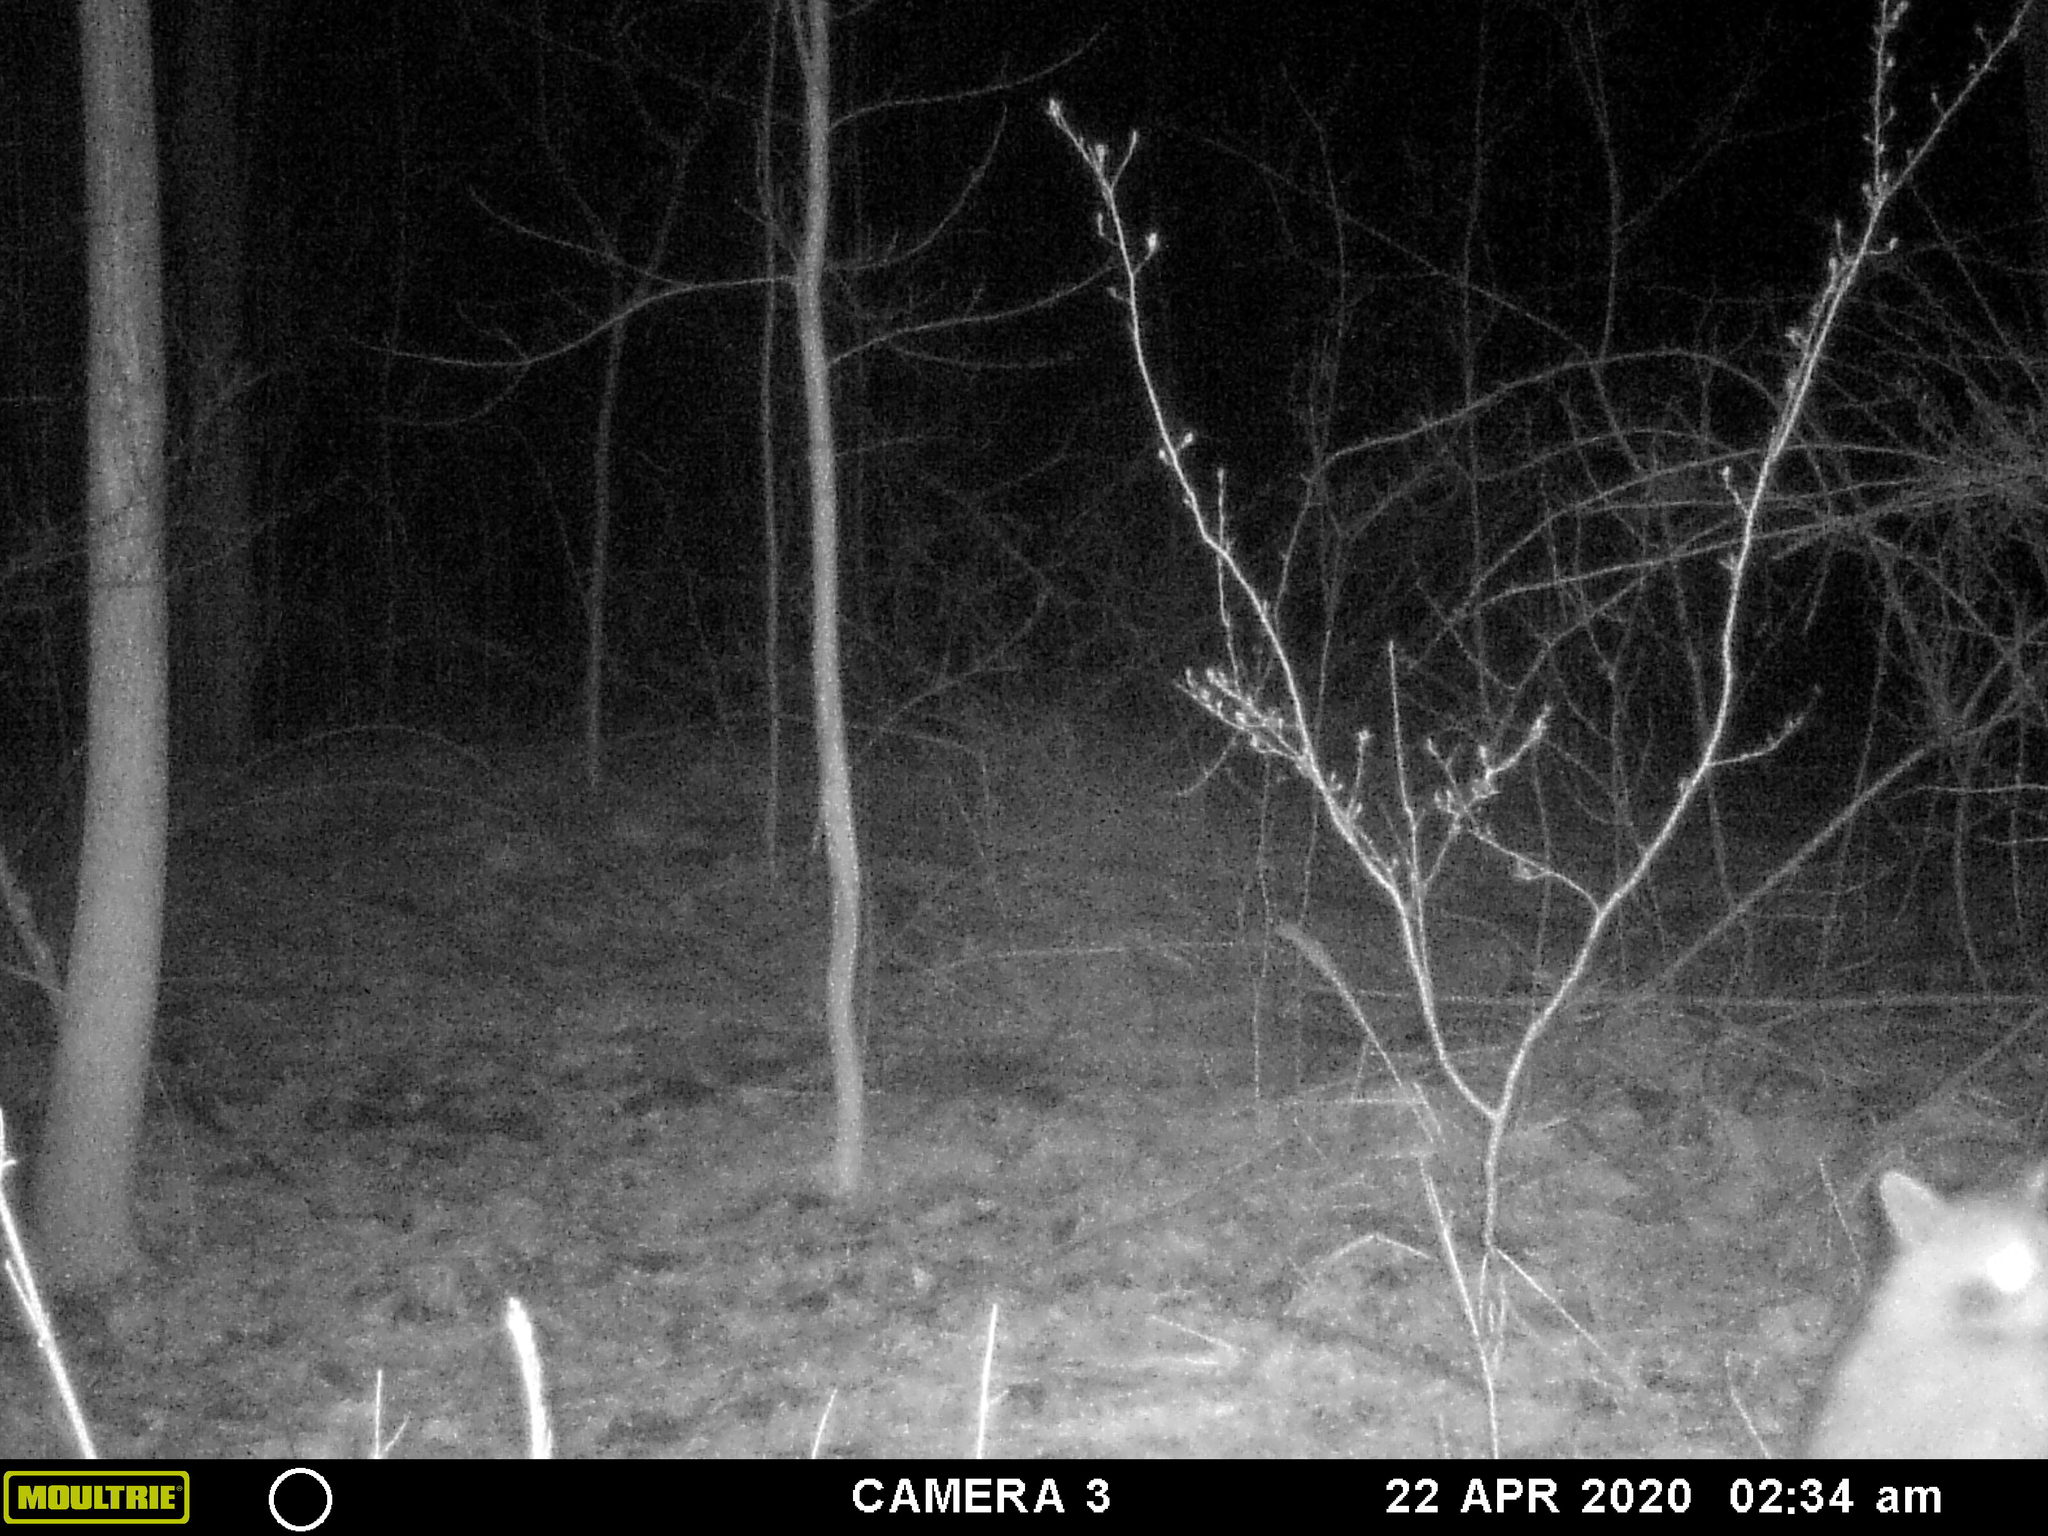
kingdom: Animalia
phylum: Chordata
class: Mammalia
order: Carnivora
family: Procyonidae
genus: Procyon
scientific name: Procyon lotor
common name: Raccoon
